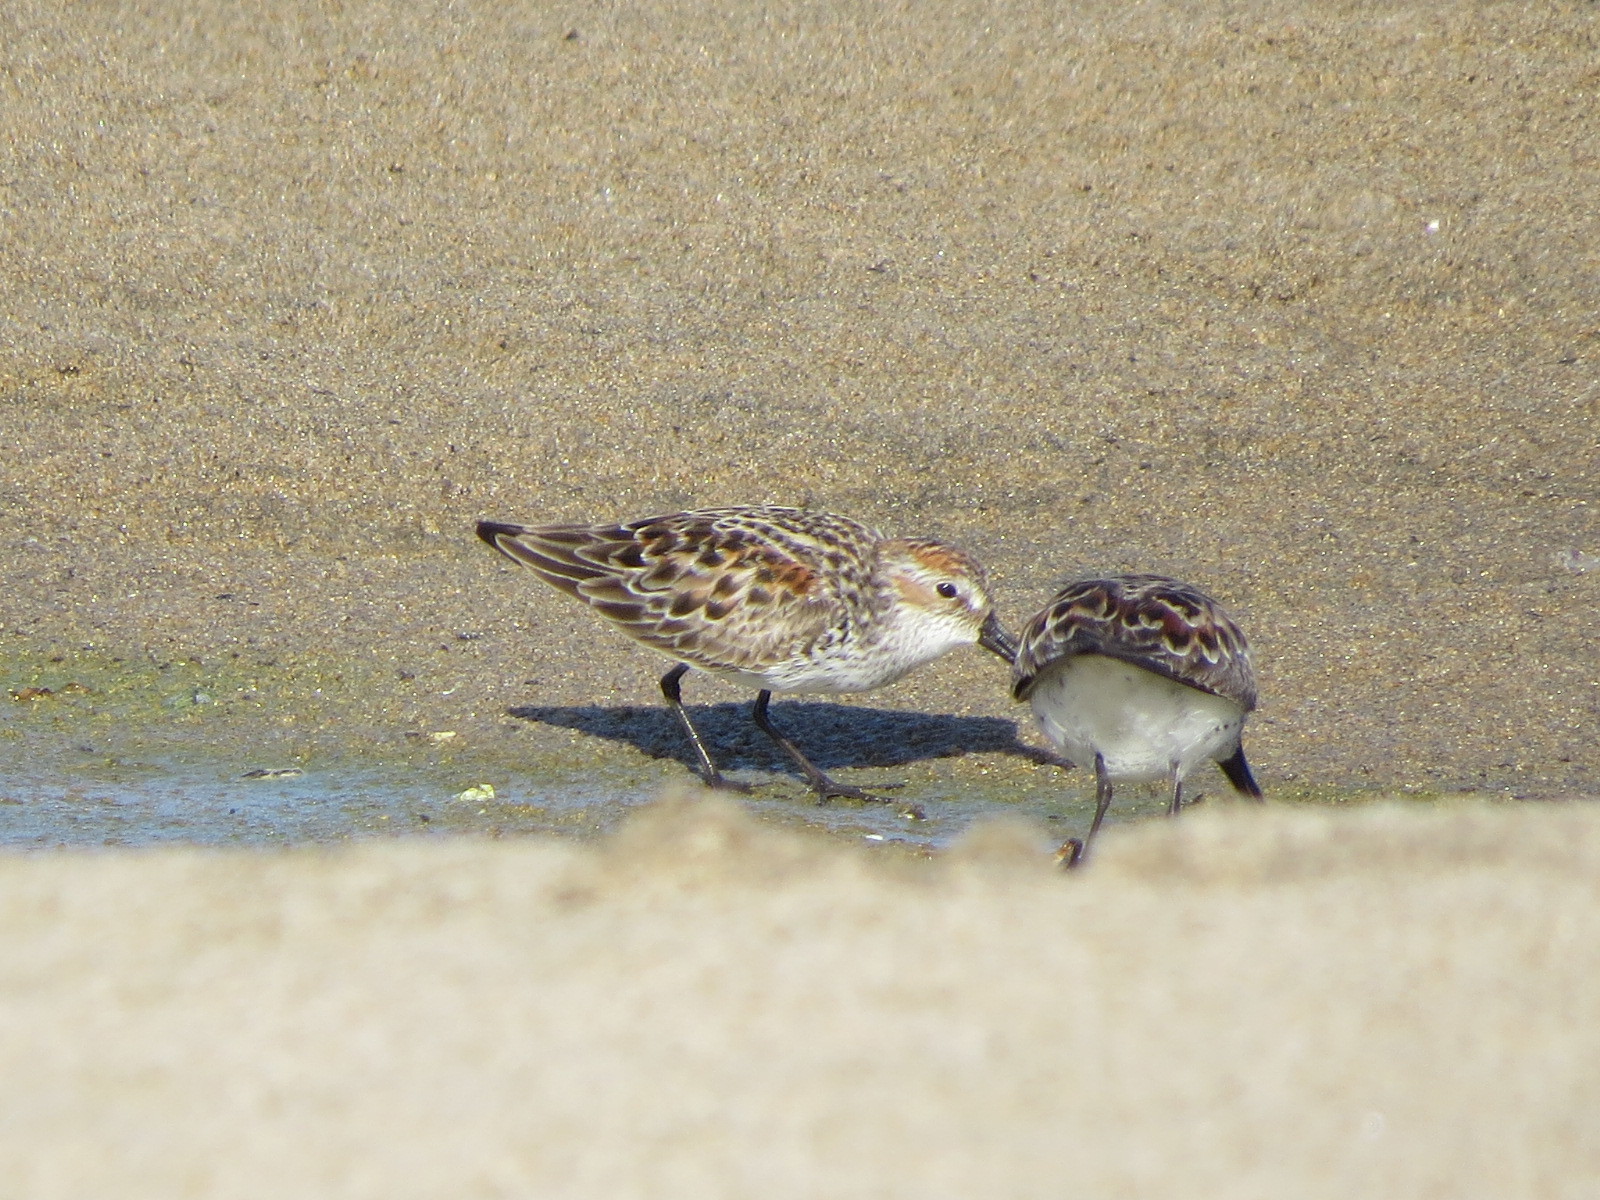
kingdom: Animalia
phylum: Chordata
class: Aves
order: Charadriiformes
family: Scolopacidae
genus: Calidris
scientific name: Calidris mauri
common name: Western sandpiper
